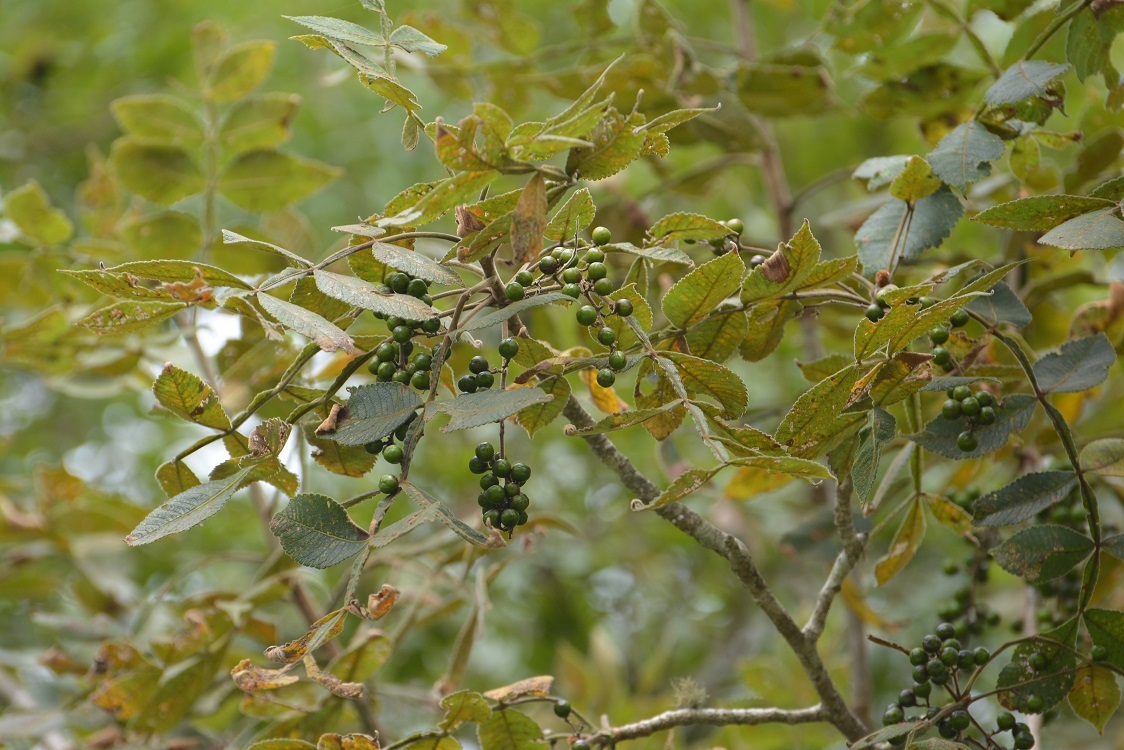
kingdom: Plantae
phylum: Tracheophyta
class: Magnoliopsida
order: Sapindales
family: Burseraceae
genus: Bursera
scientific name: Bursera excelsa
